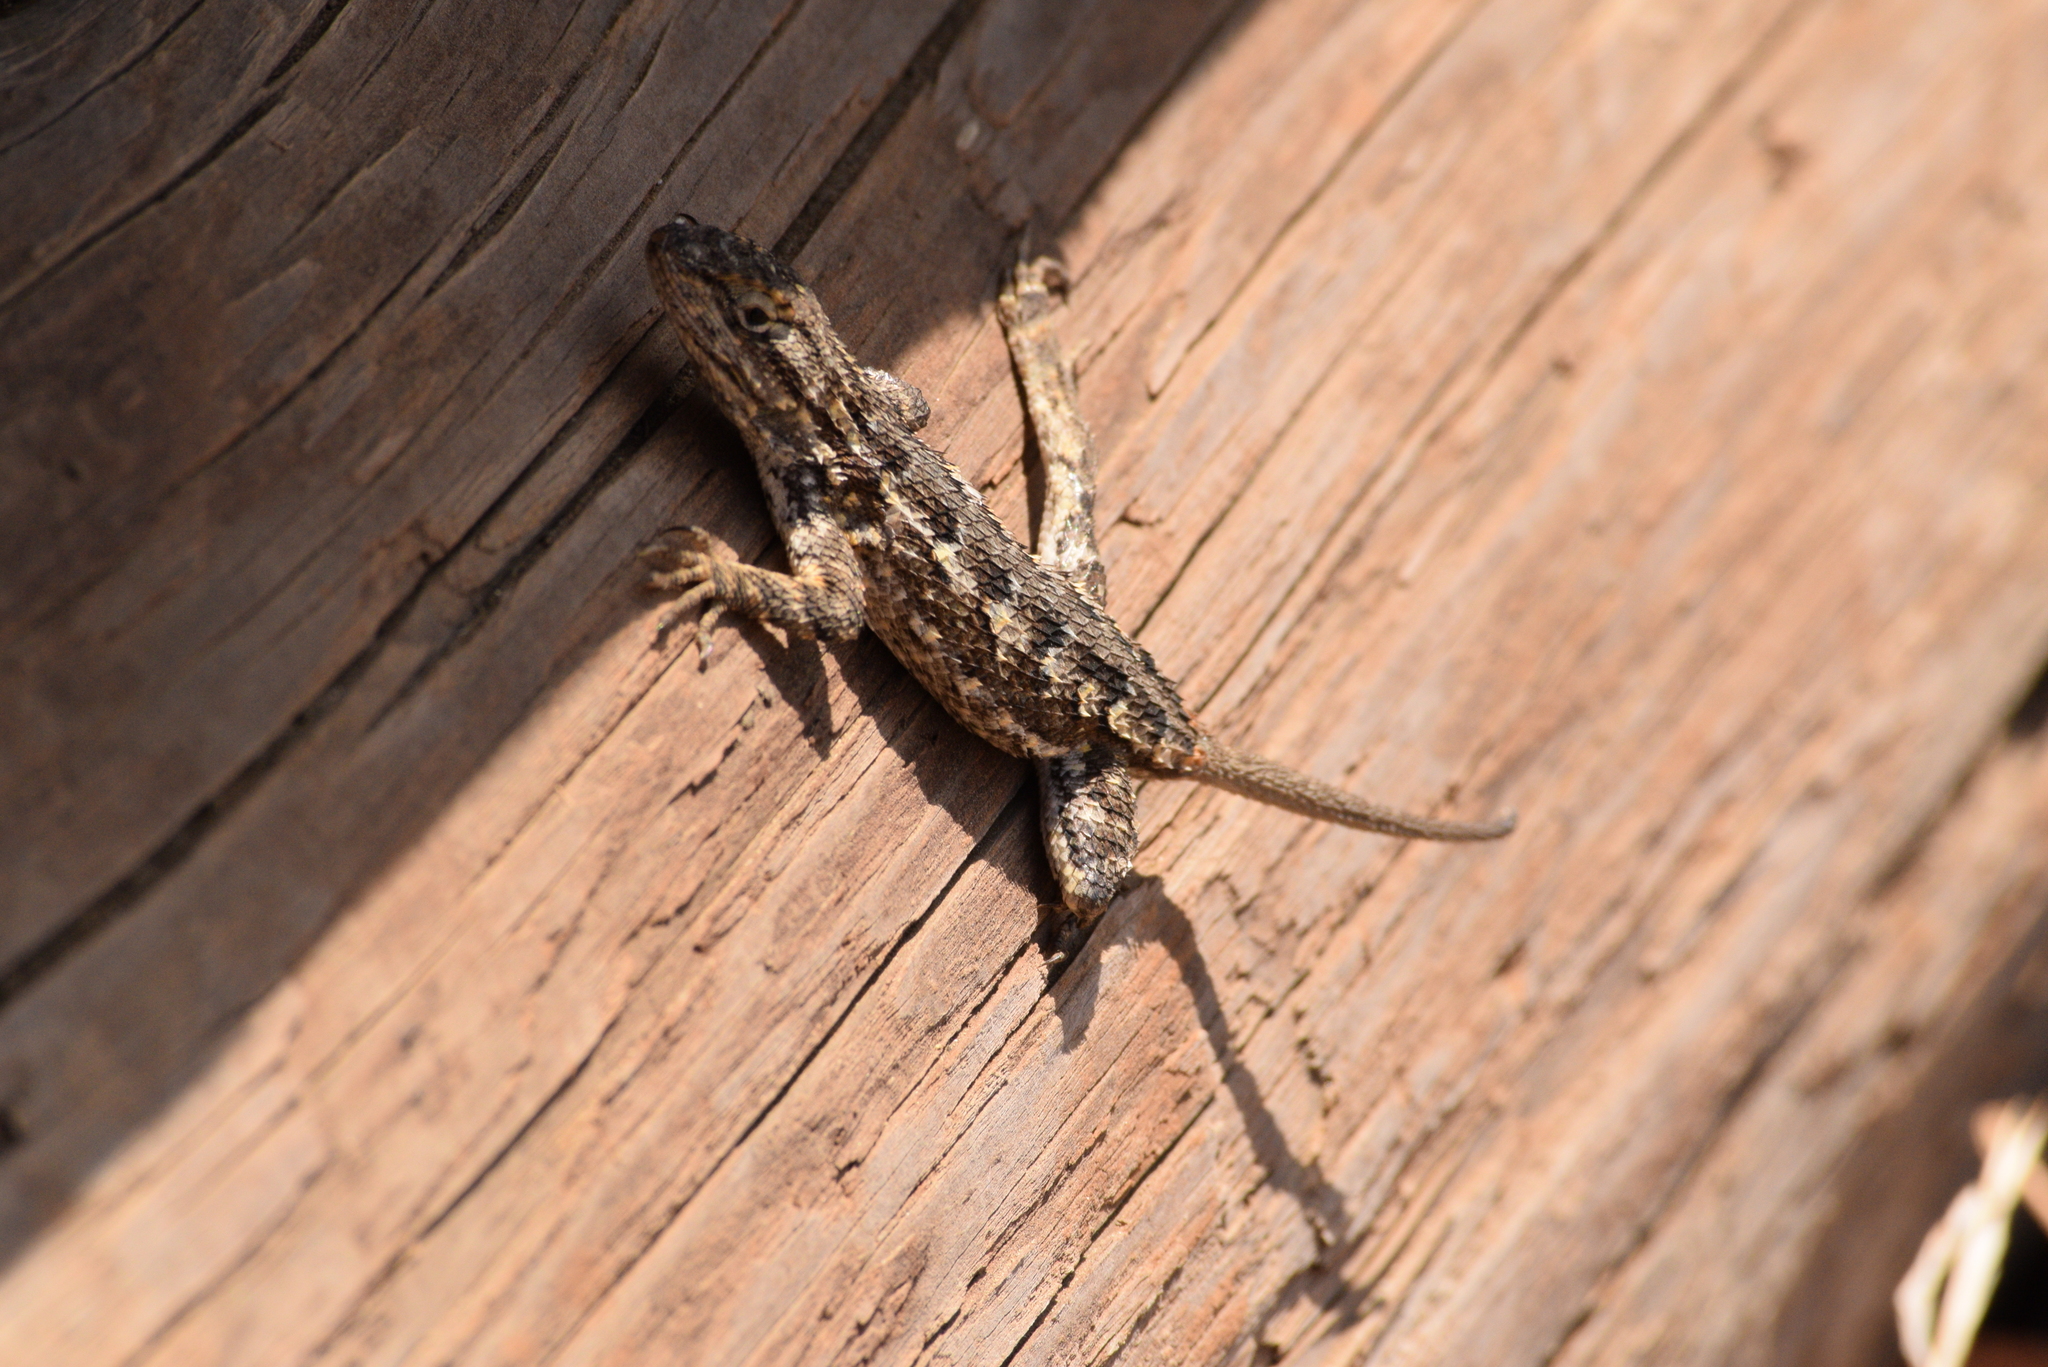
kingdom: Animalia
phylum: Chordata
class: Squamata
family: Phrynosomatidae
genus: Sceloporus
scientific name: Sceloporus occidentalis
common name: Western fence lizard
